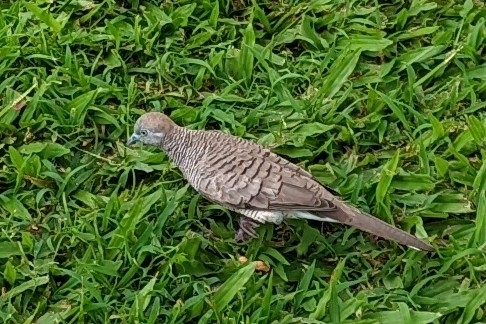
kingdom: Animalia
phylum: Chordata
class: Aves
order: Columbiformes
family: Columbidae
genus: Geopelia
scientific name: Geopelia striata
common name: Zebra dove
